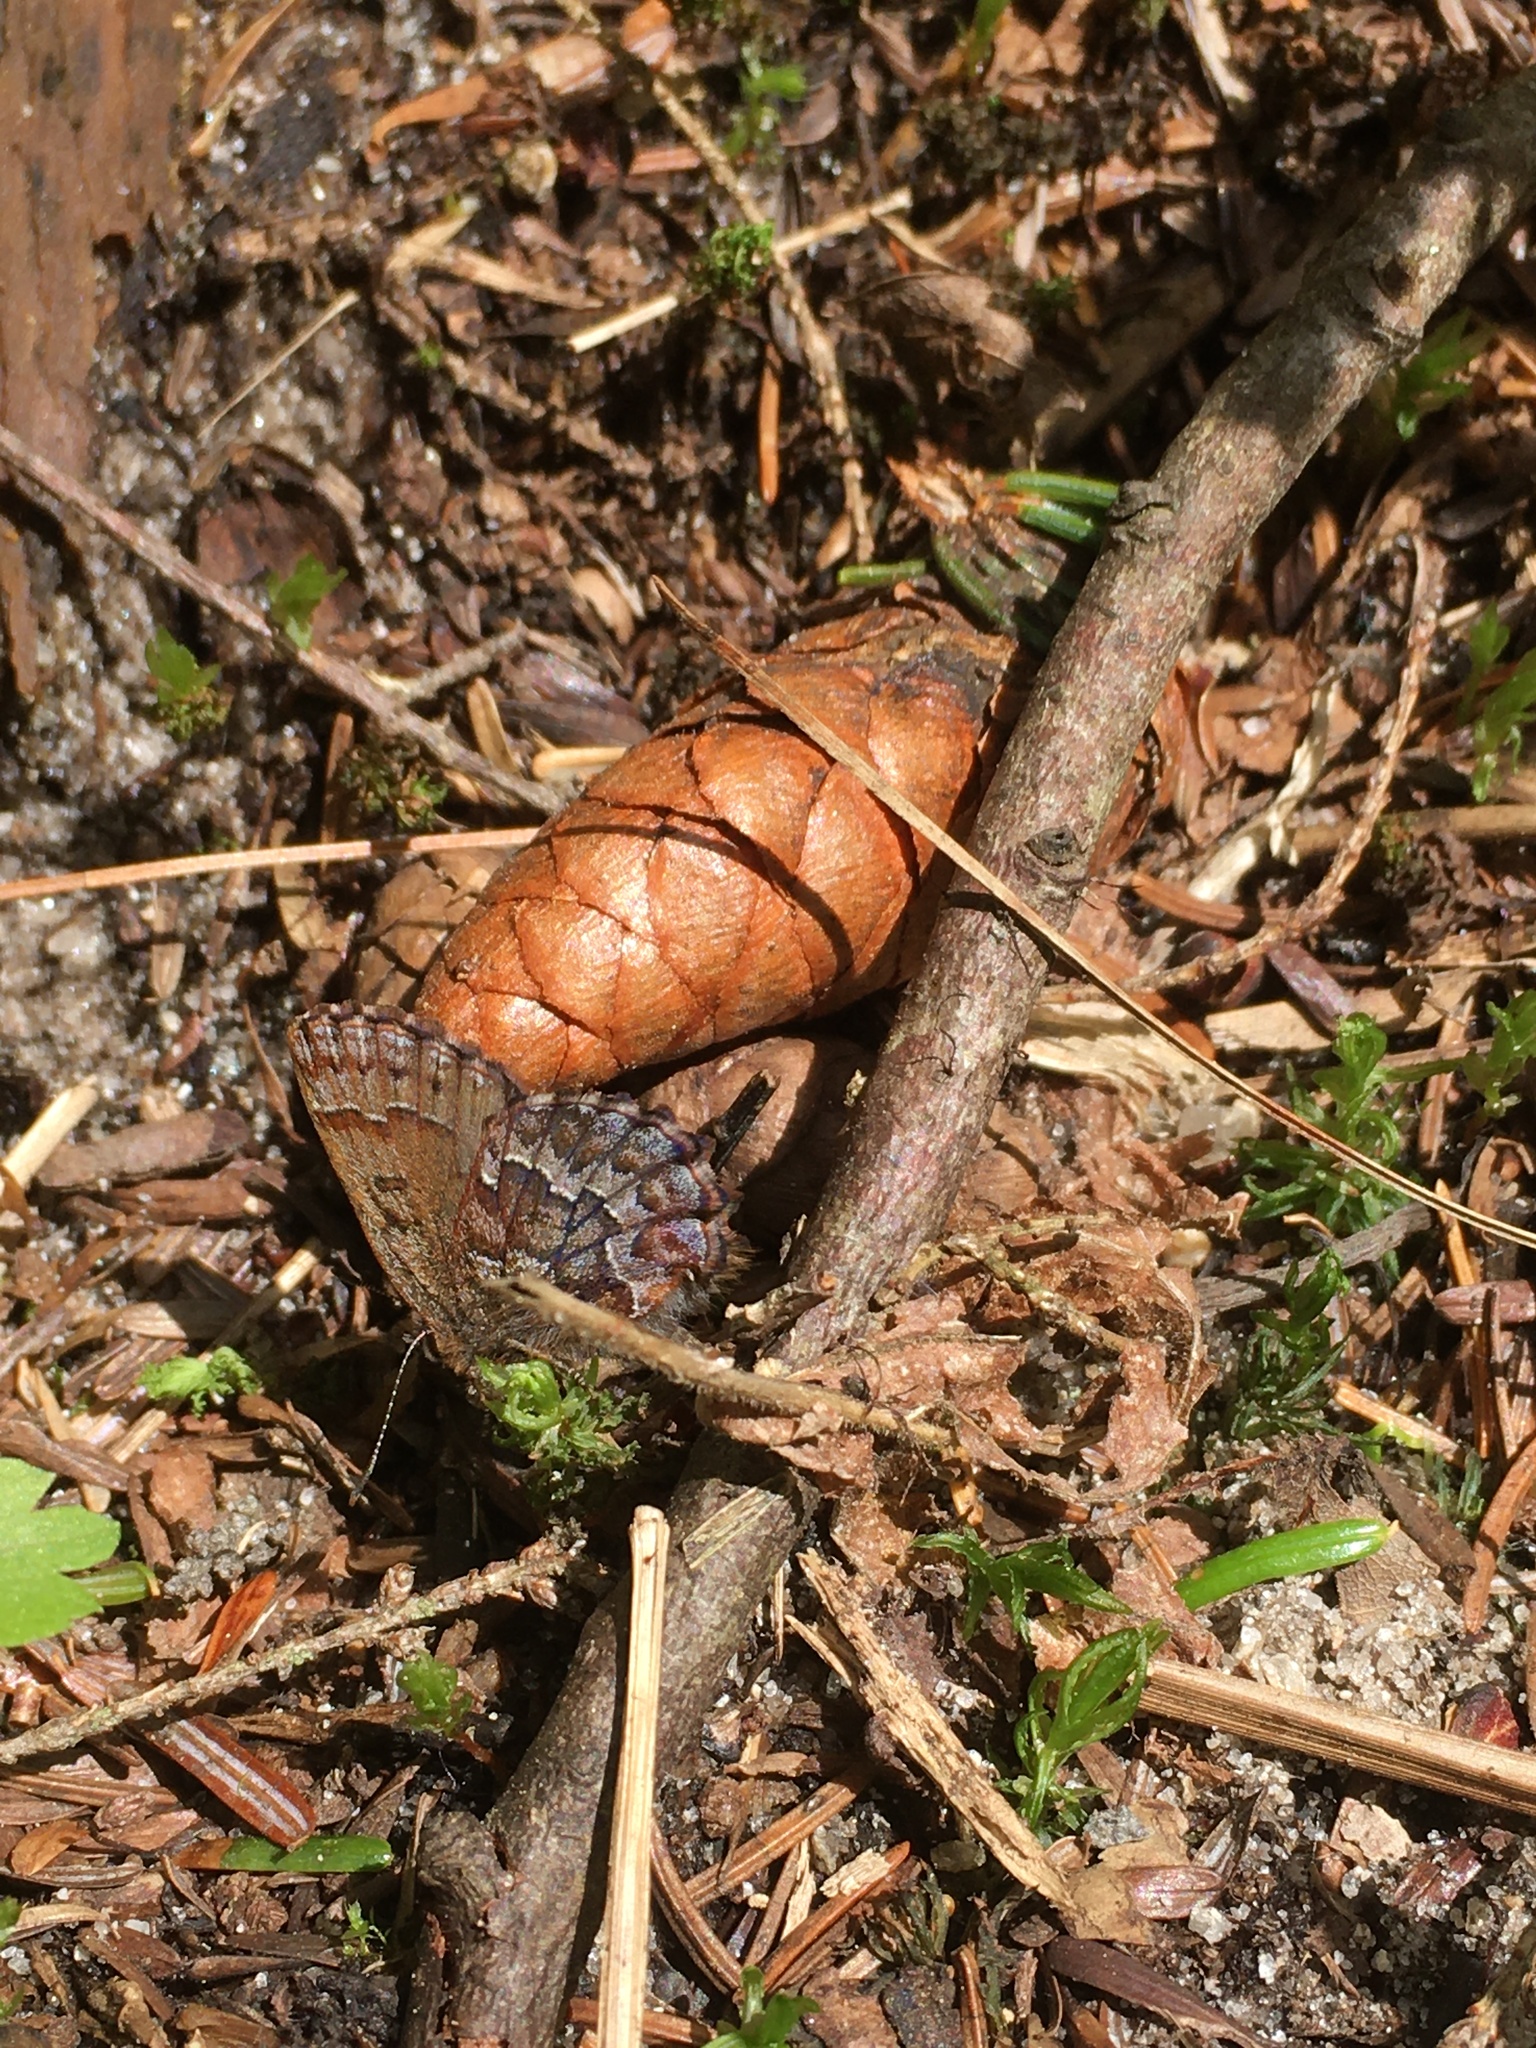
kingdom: Animalia
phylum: Arthropoda
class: Insecta
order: Lepidoptera
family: Lycaenidae
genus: Incisalia
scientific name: Incisalia niphon
